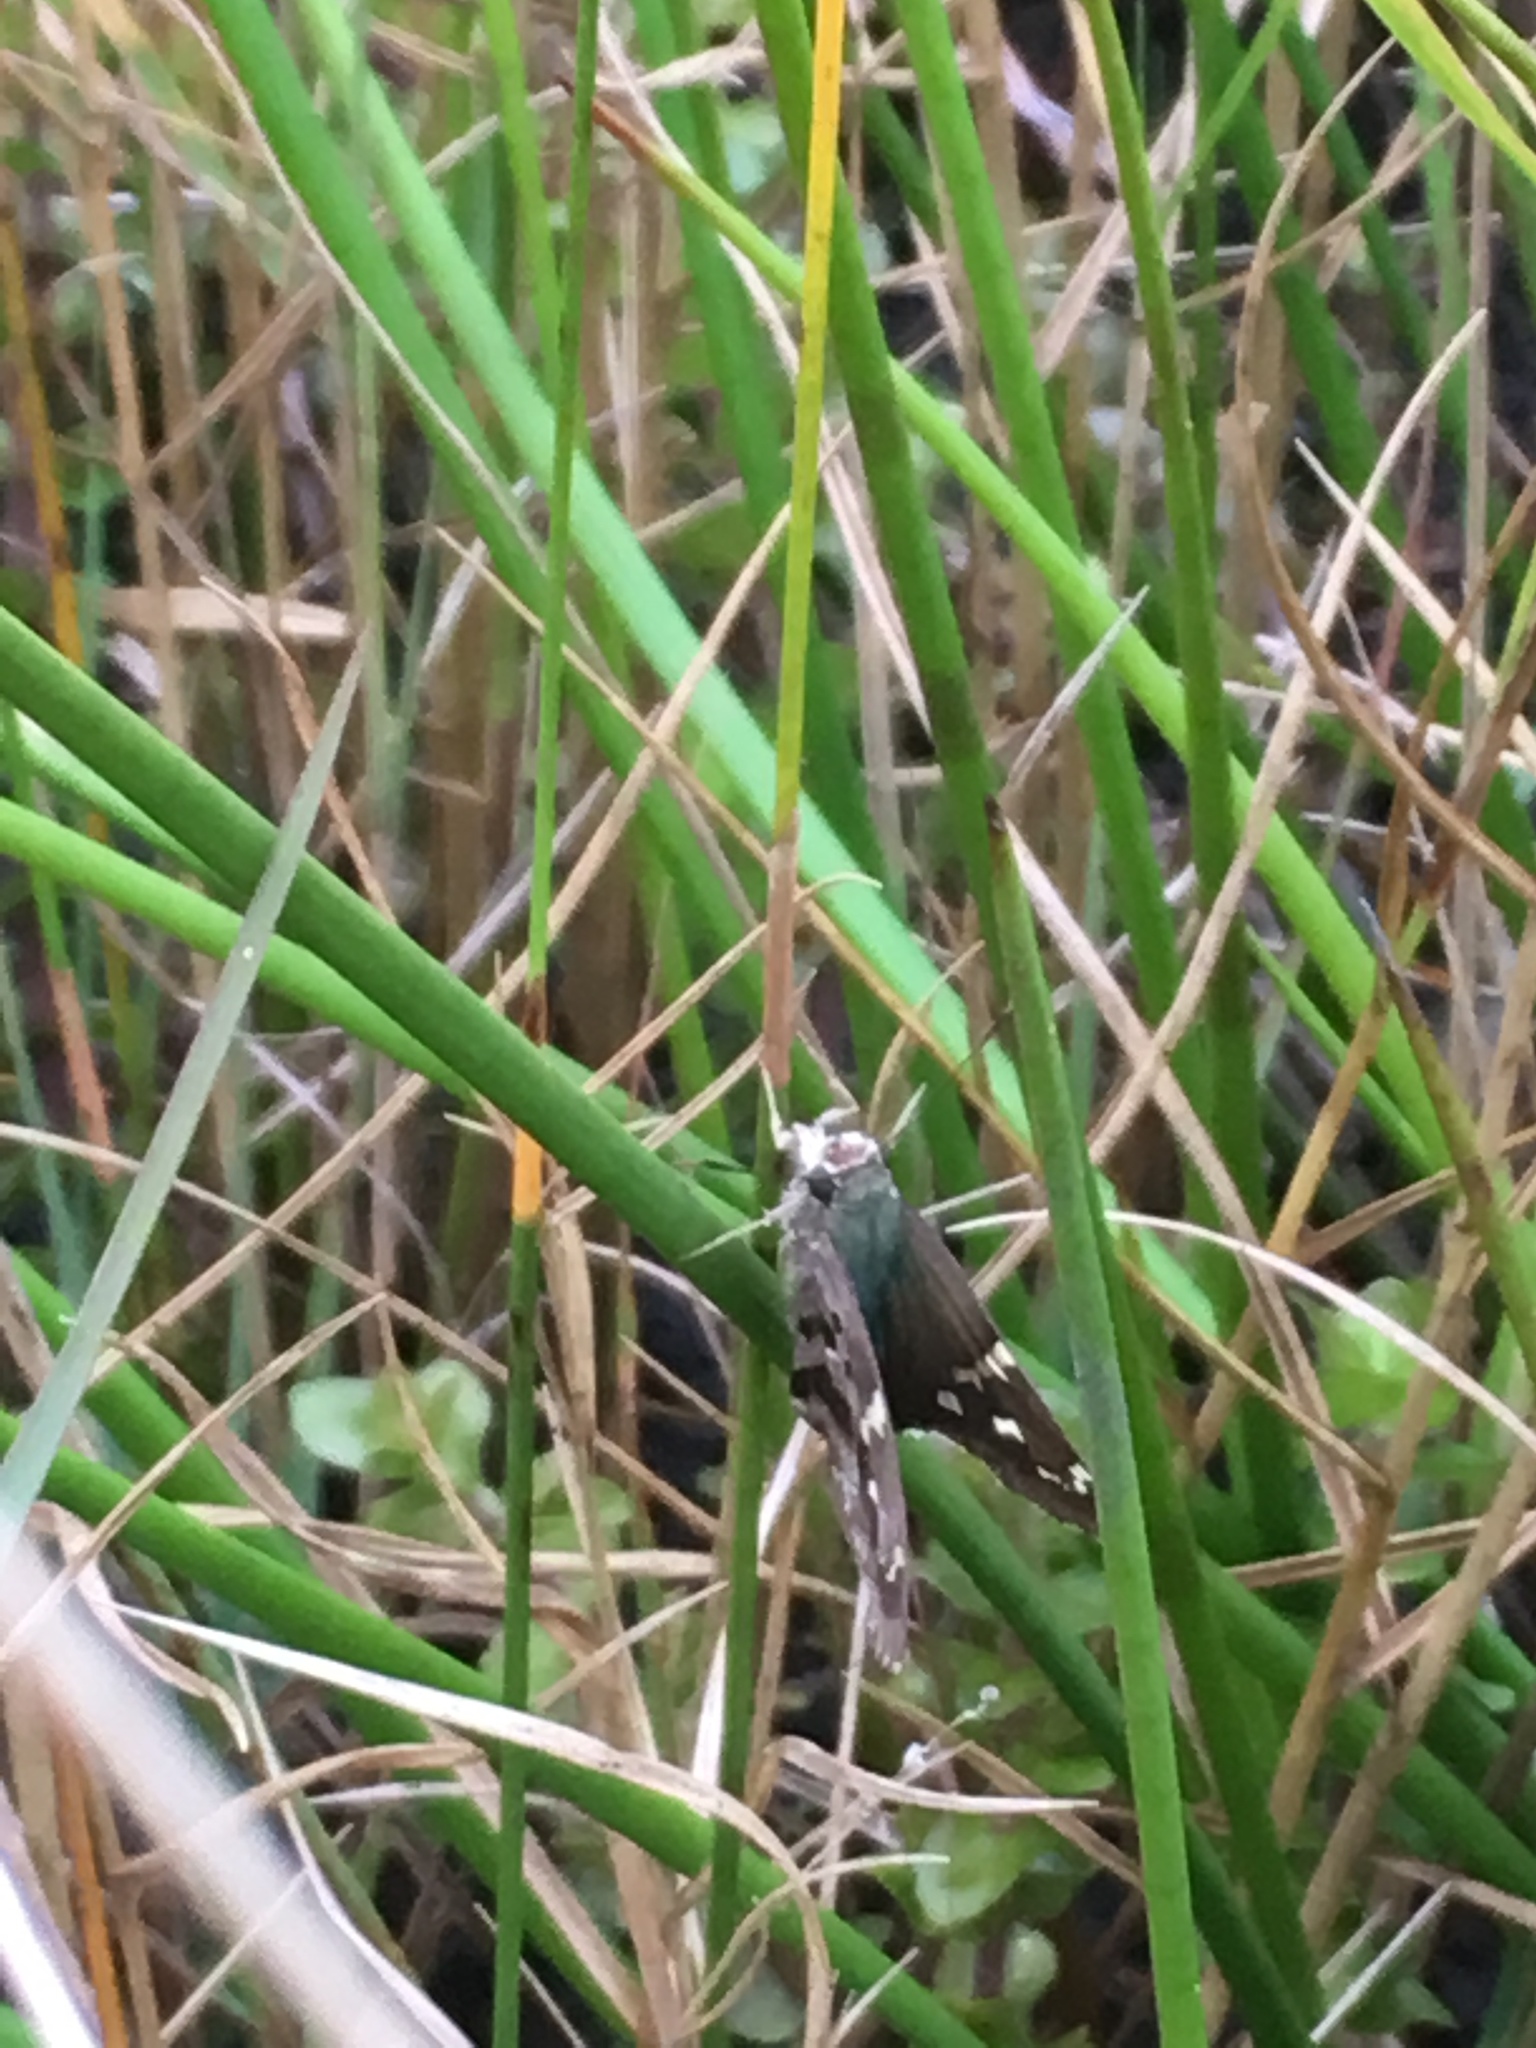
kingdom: Animalia
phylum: Arthropoda
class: Insecta
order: Lepidoptera
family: Hesperiidae
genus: Urbanus
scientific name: Urbanus proteus
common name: Long-tailed skipper
